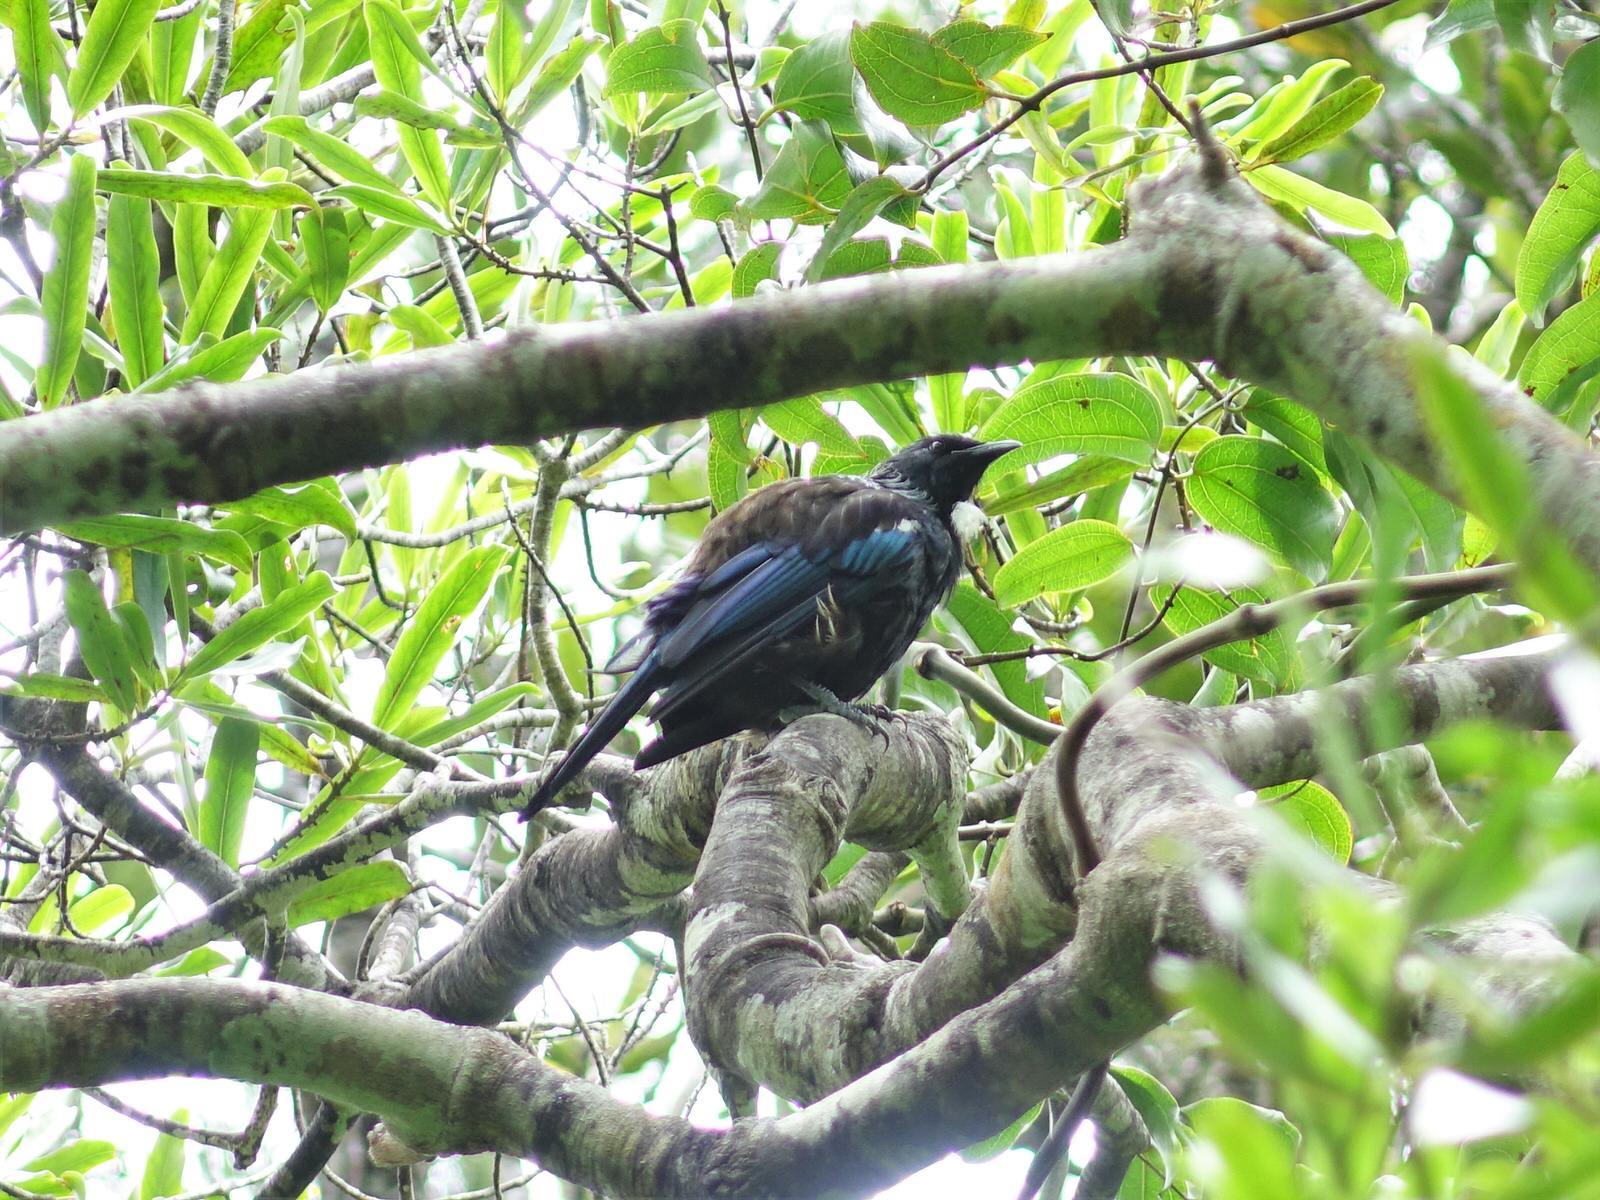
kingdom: Animalia
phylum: Chordata
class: Aves
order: Passeriformes
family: Meliphagidae
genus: Prosthemadera
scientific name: Prosthemadera novaeseelandiae
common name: Tui
